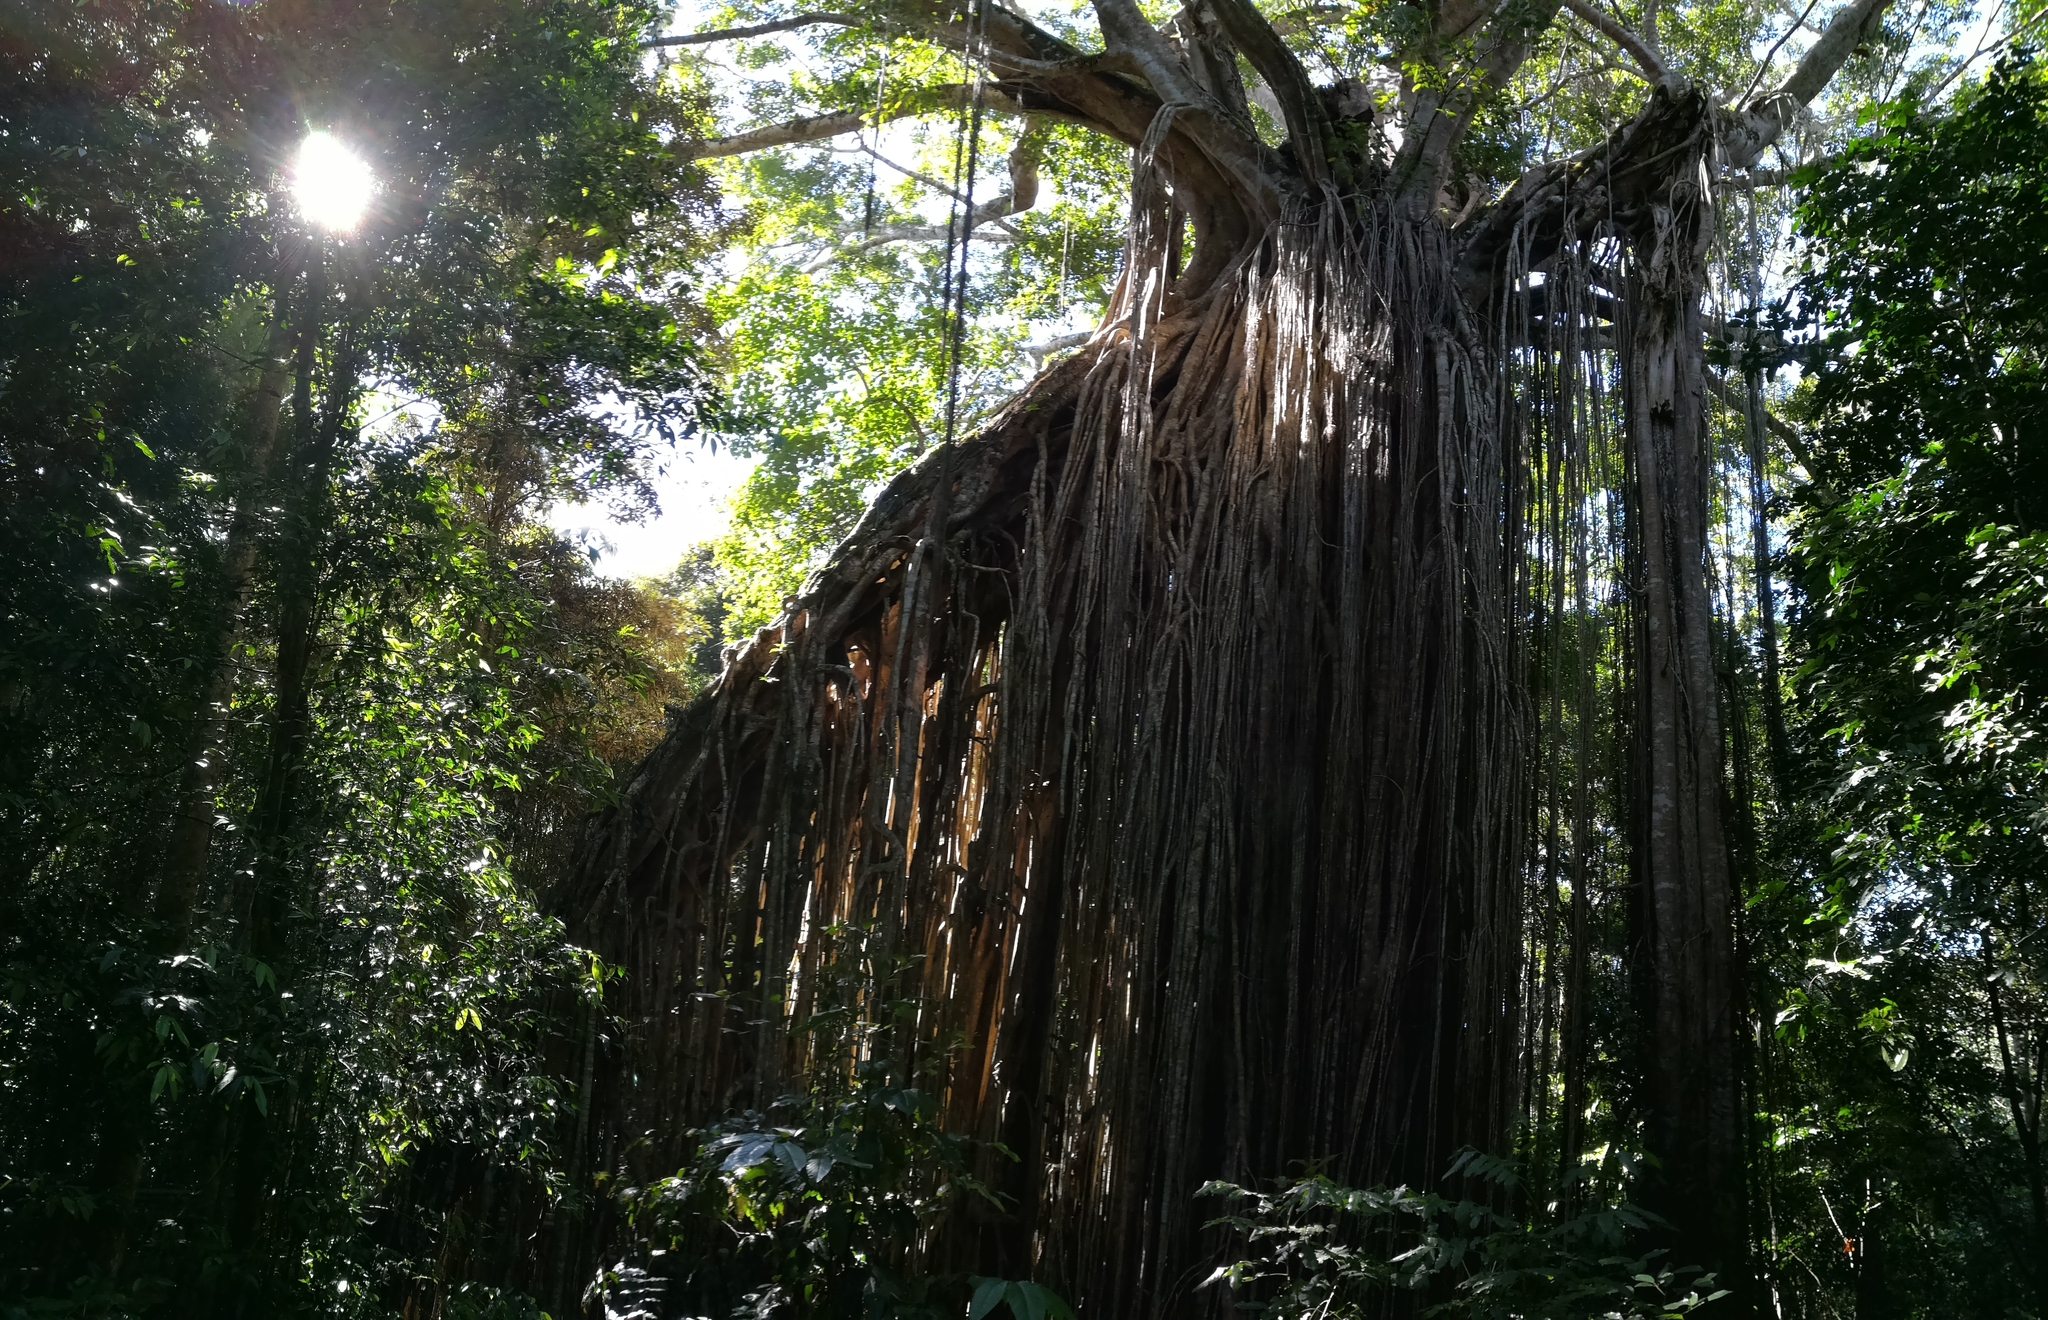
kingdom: Plantae
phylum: Tracheophyta
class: Magnoliopsida
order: Rosales
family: Moraceae
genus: Ficus
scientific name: Ficus virens
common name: Spotted fig
